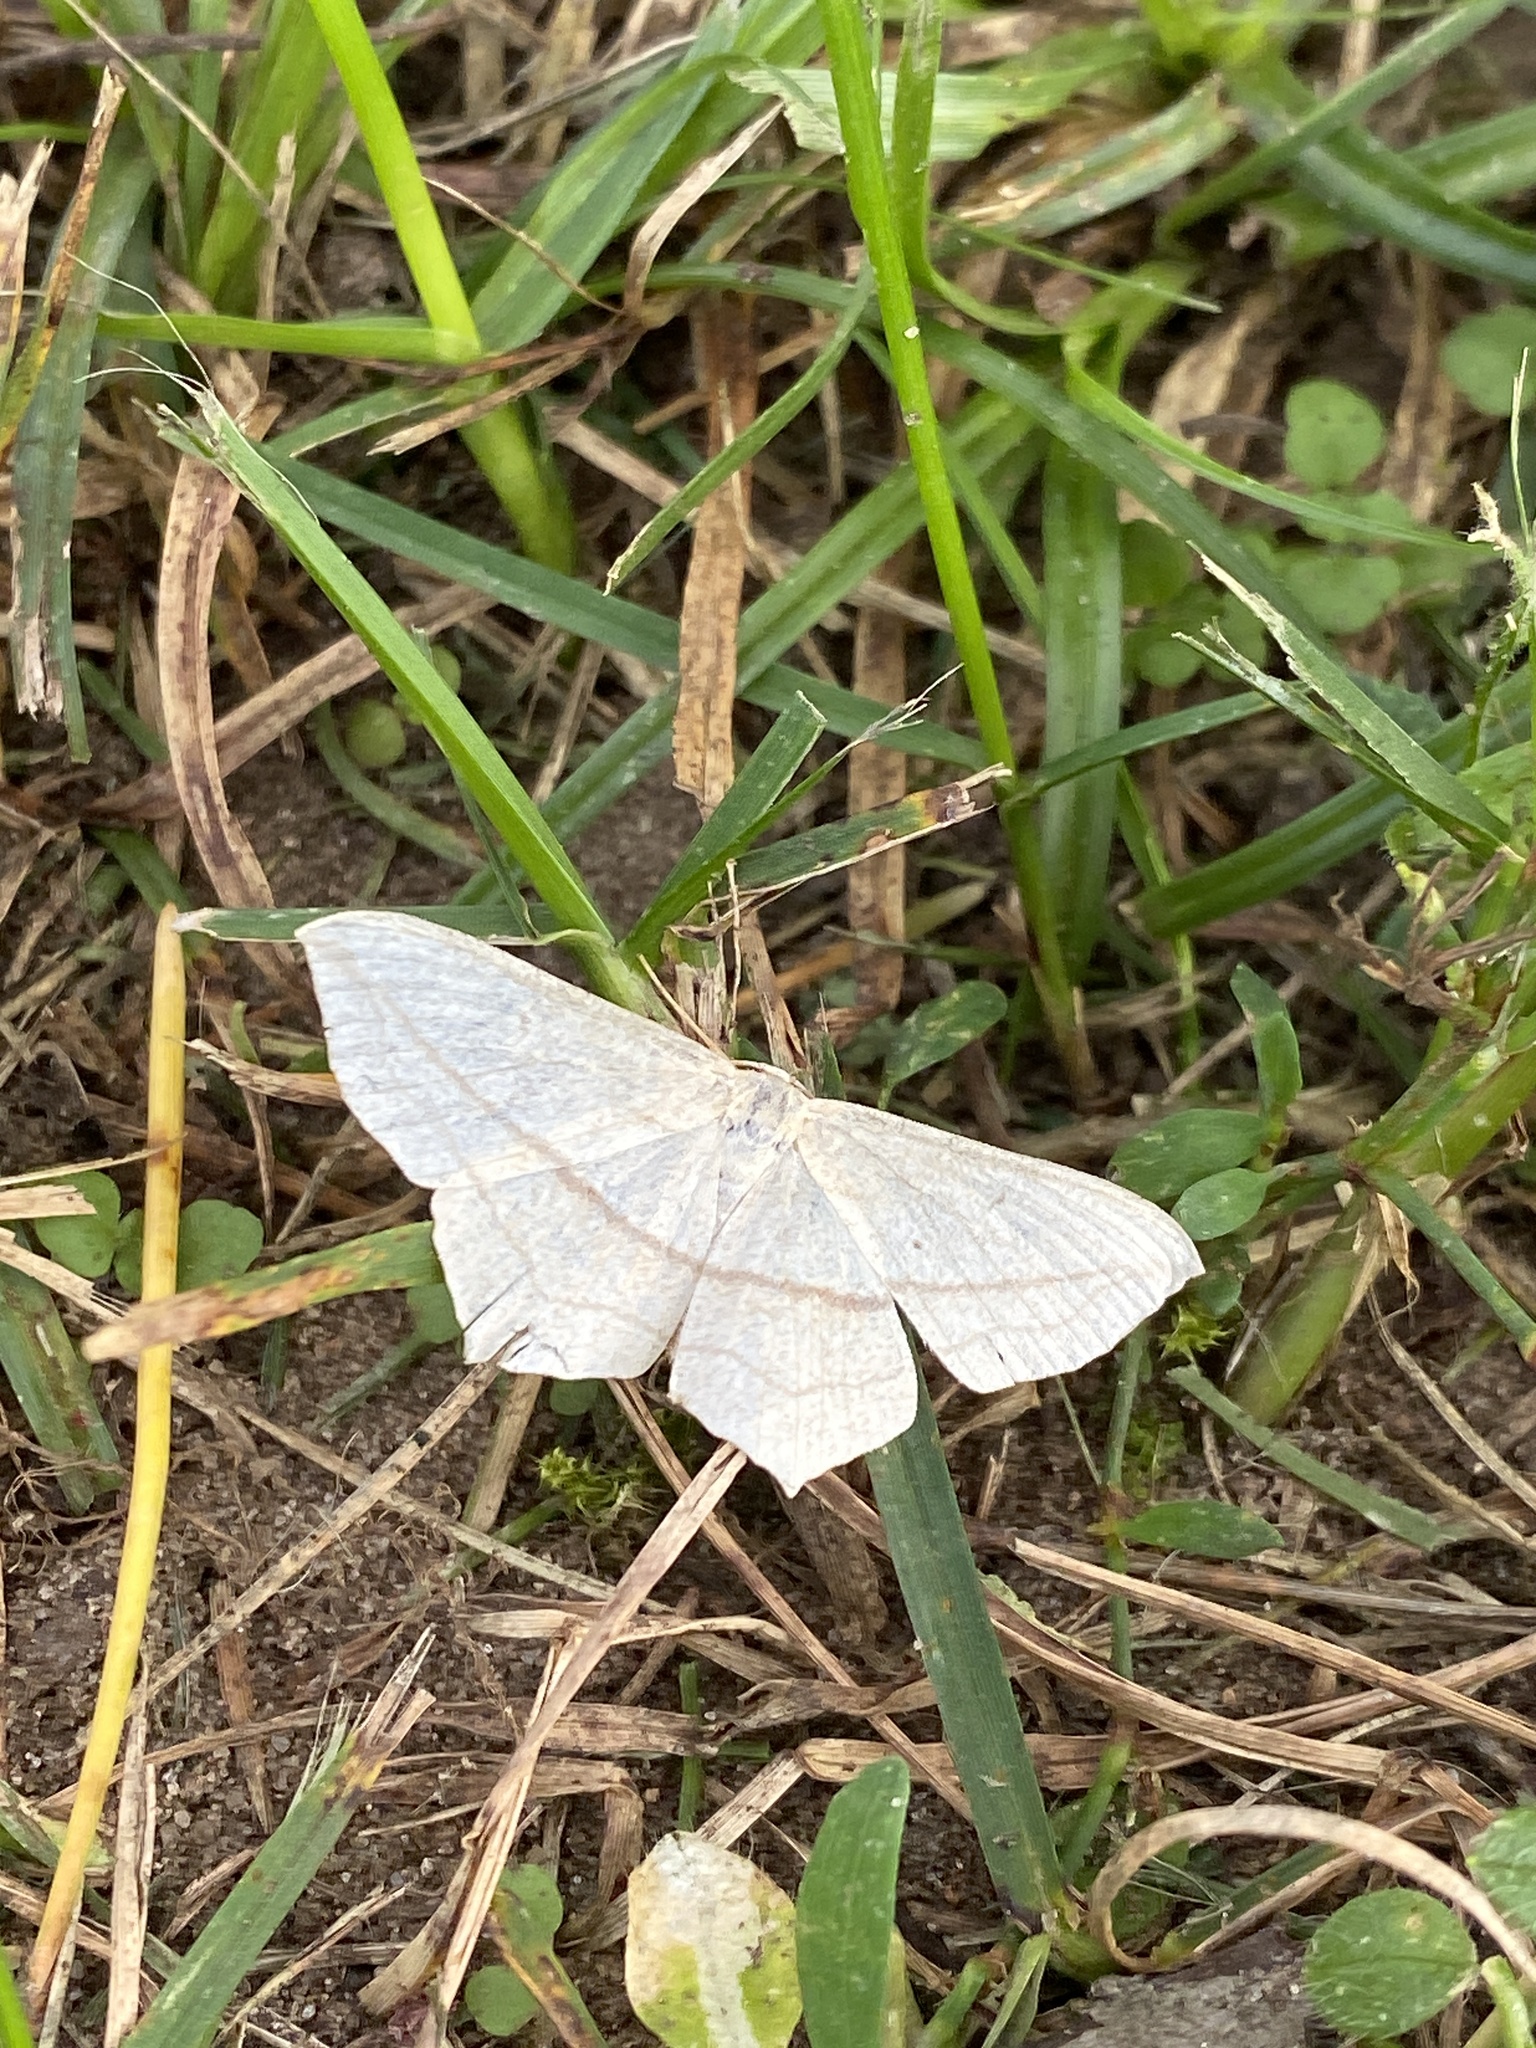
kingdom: Animalia
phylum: Arthropoda
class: Insecta
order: Lepidoptera
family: Geometridae
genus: Timandra
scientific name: Timandra comae
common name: Blood-vein
